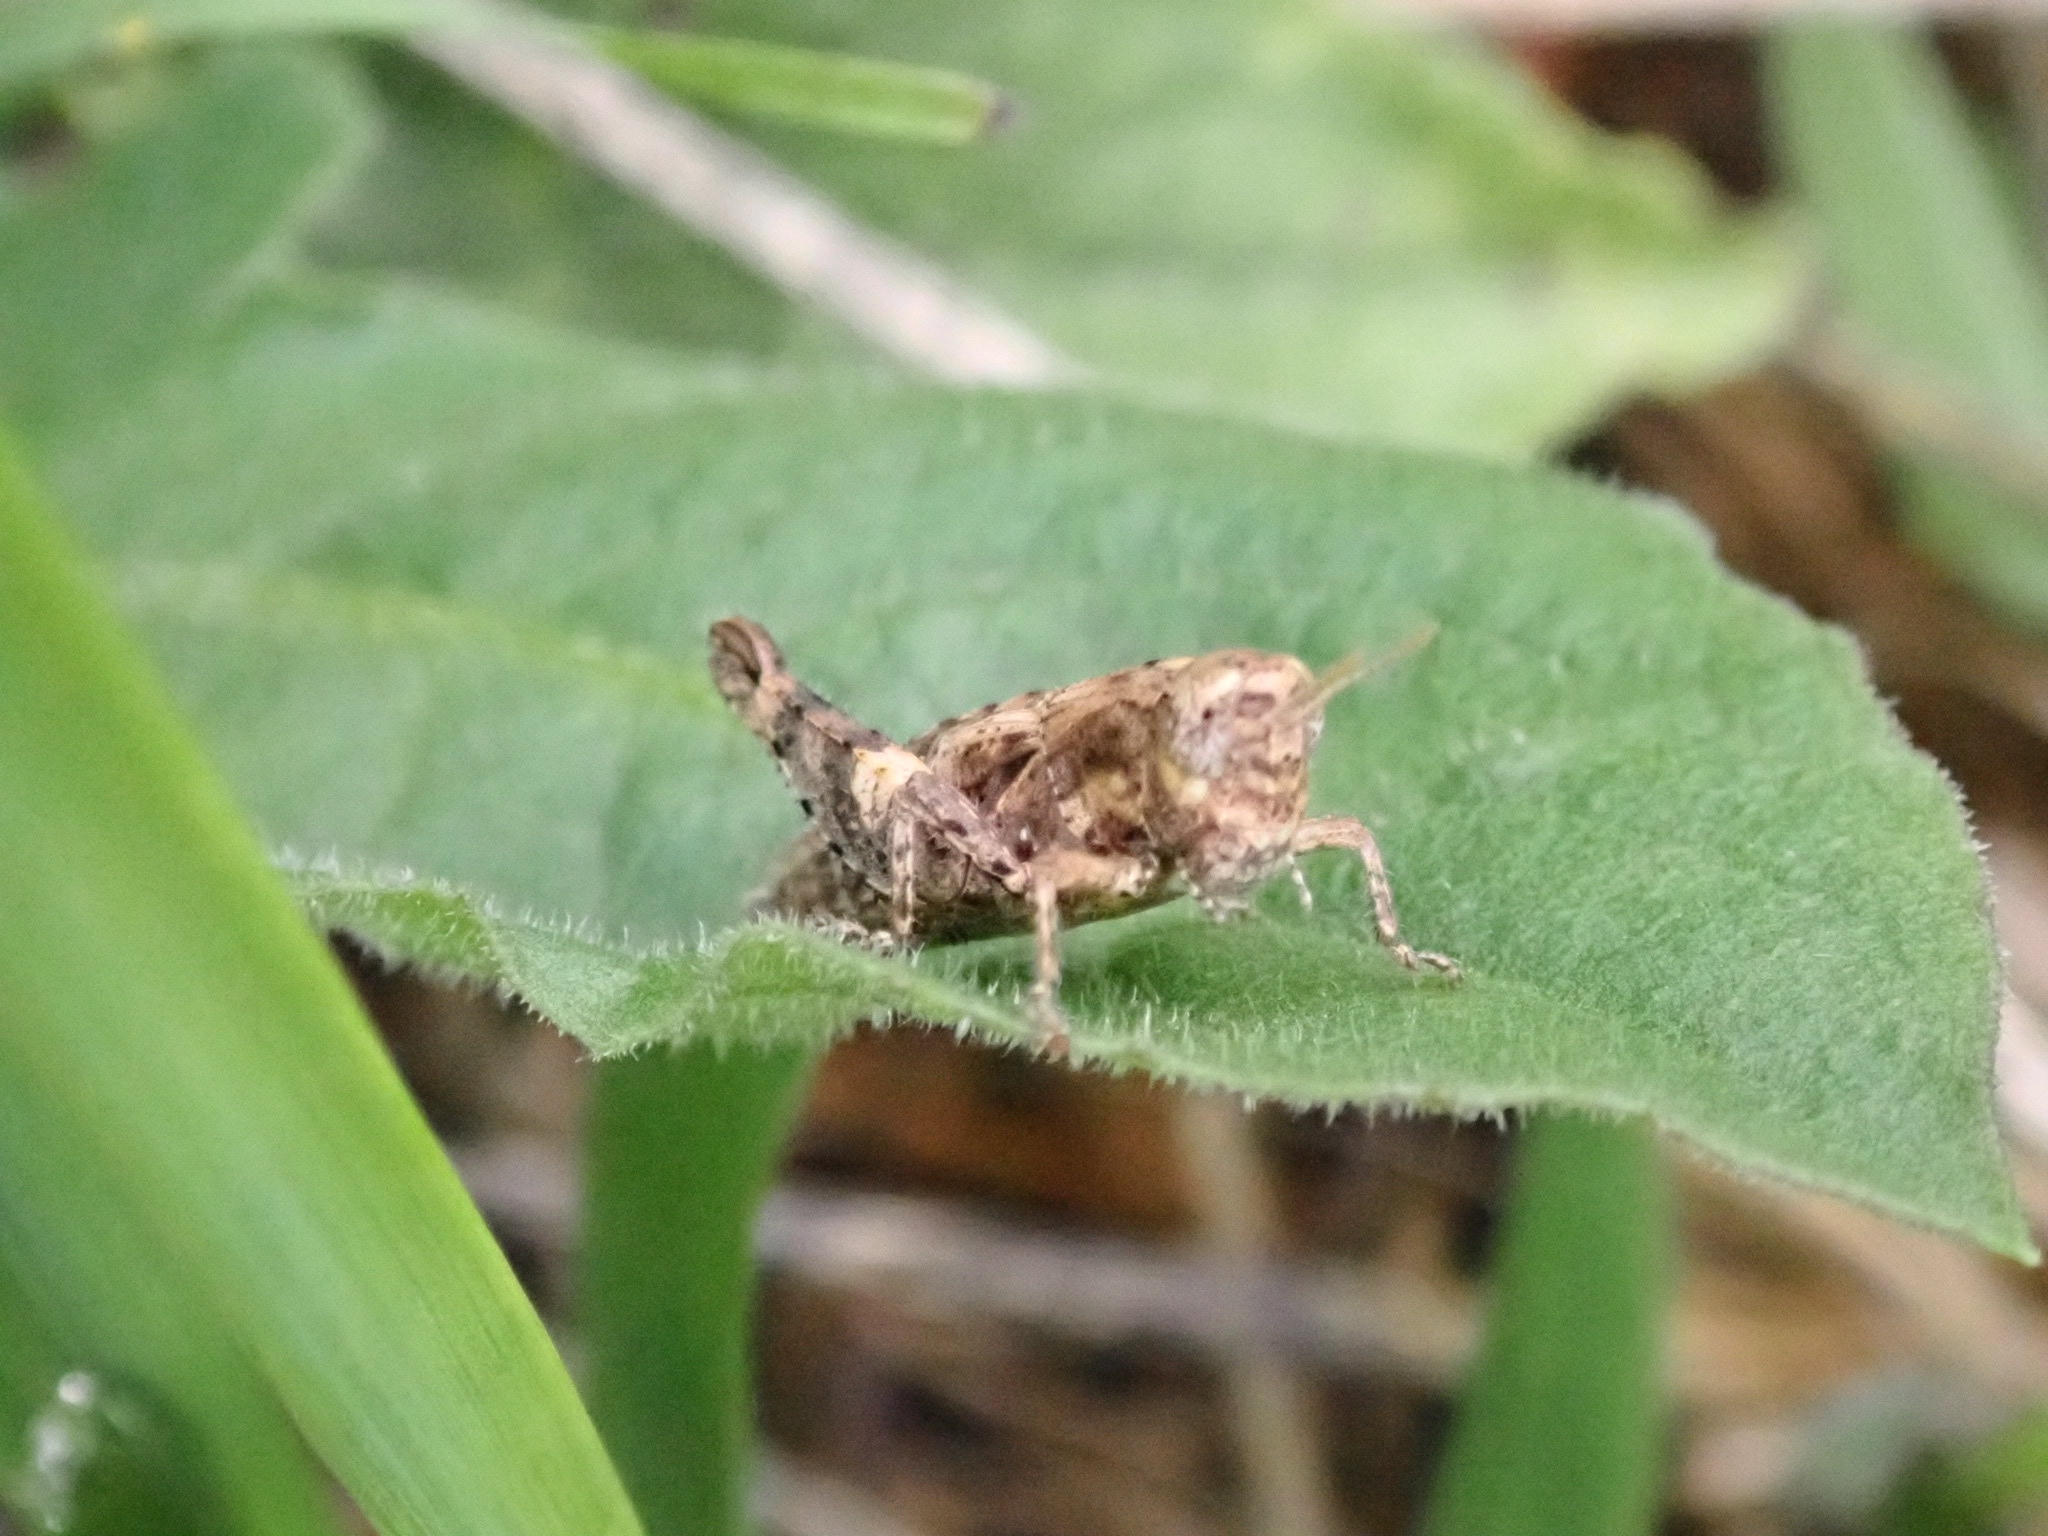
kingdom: Animalia
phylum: Arthropoda
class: Insecta
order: Orthoptera
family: Acrididae
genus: Pezotettix
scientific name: Pezotettix giornae
